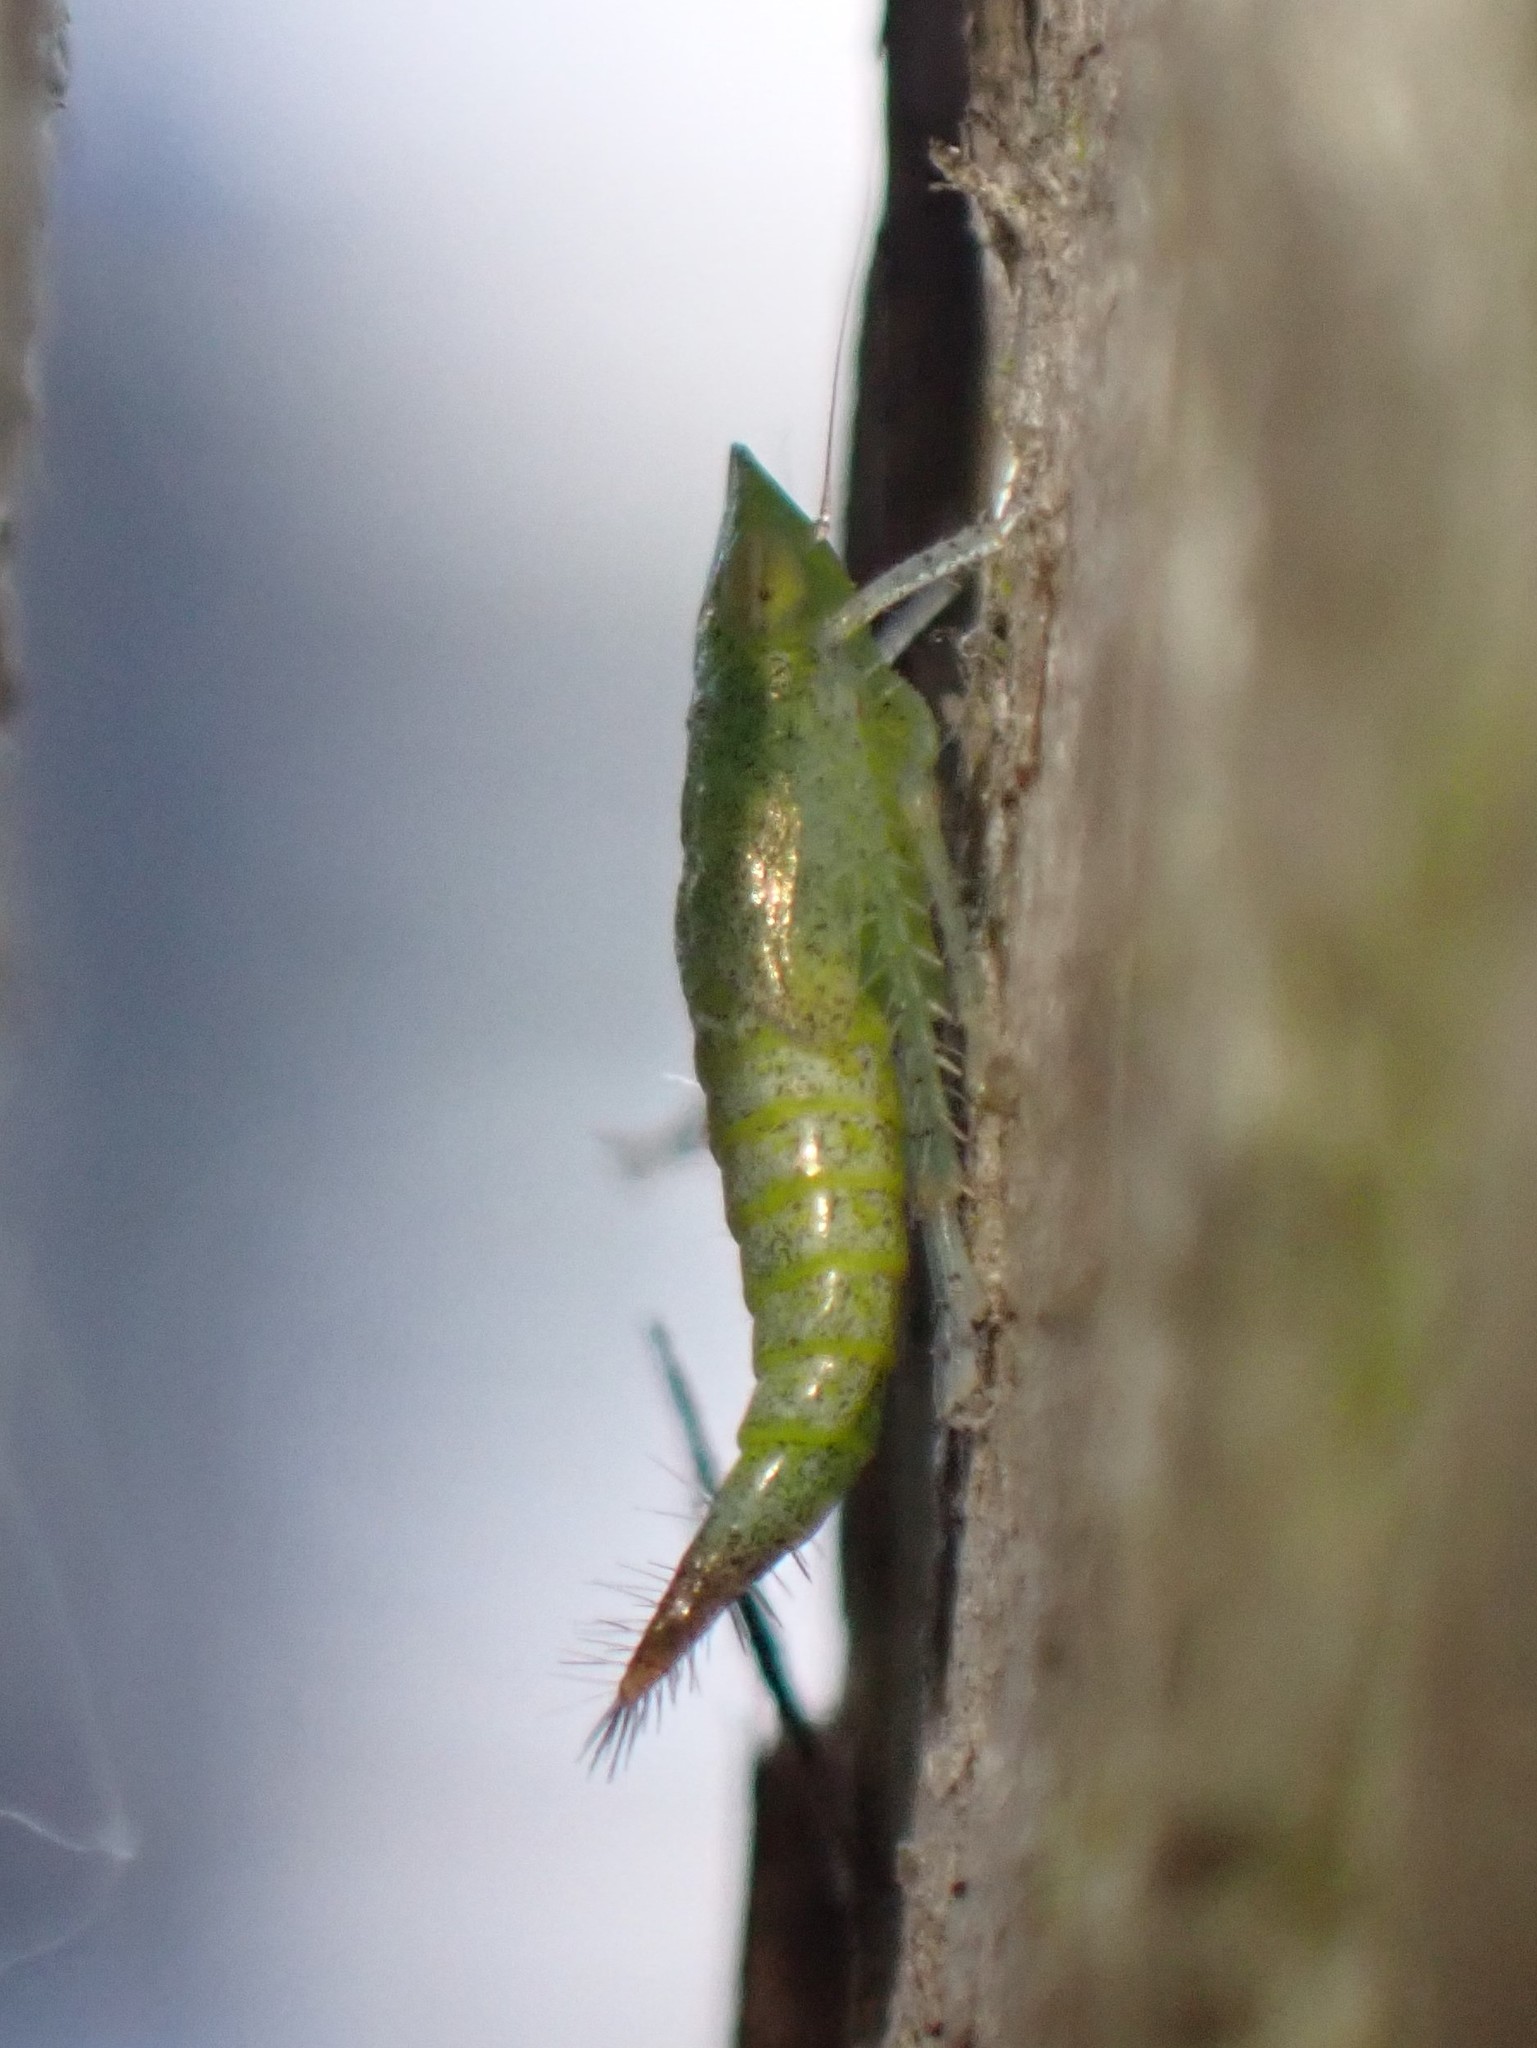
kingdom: Animalia
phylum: Arthropoda
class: Insecta
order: Hemiptera
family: Cicadellidae
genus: Fieberiella
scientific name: Fieberiella florii
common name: Flor’s leafhopper
